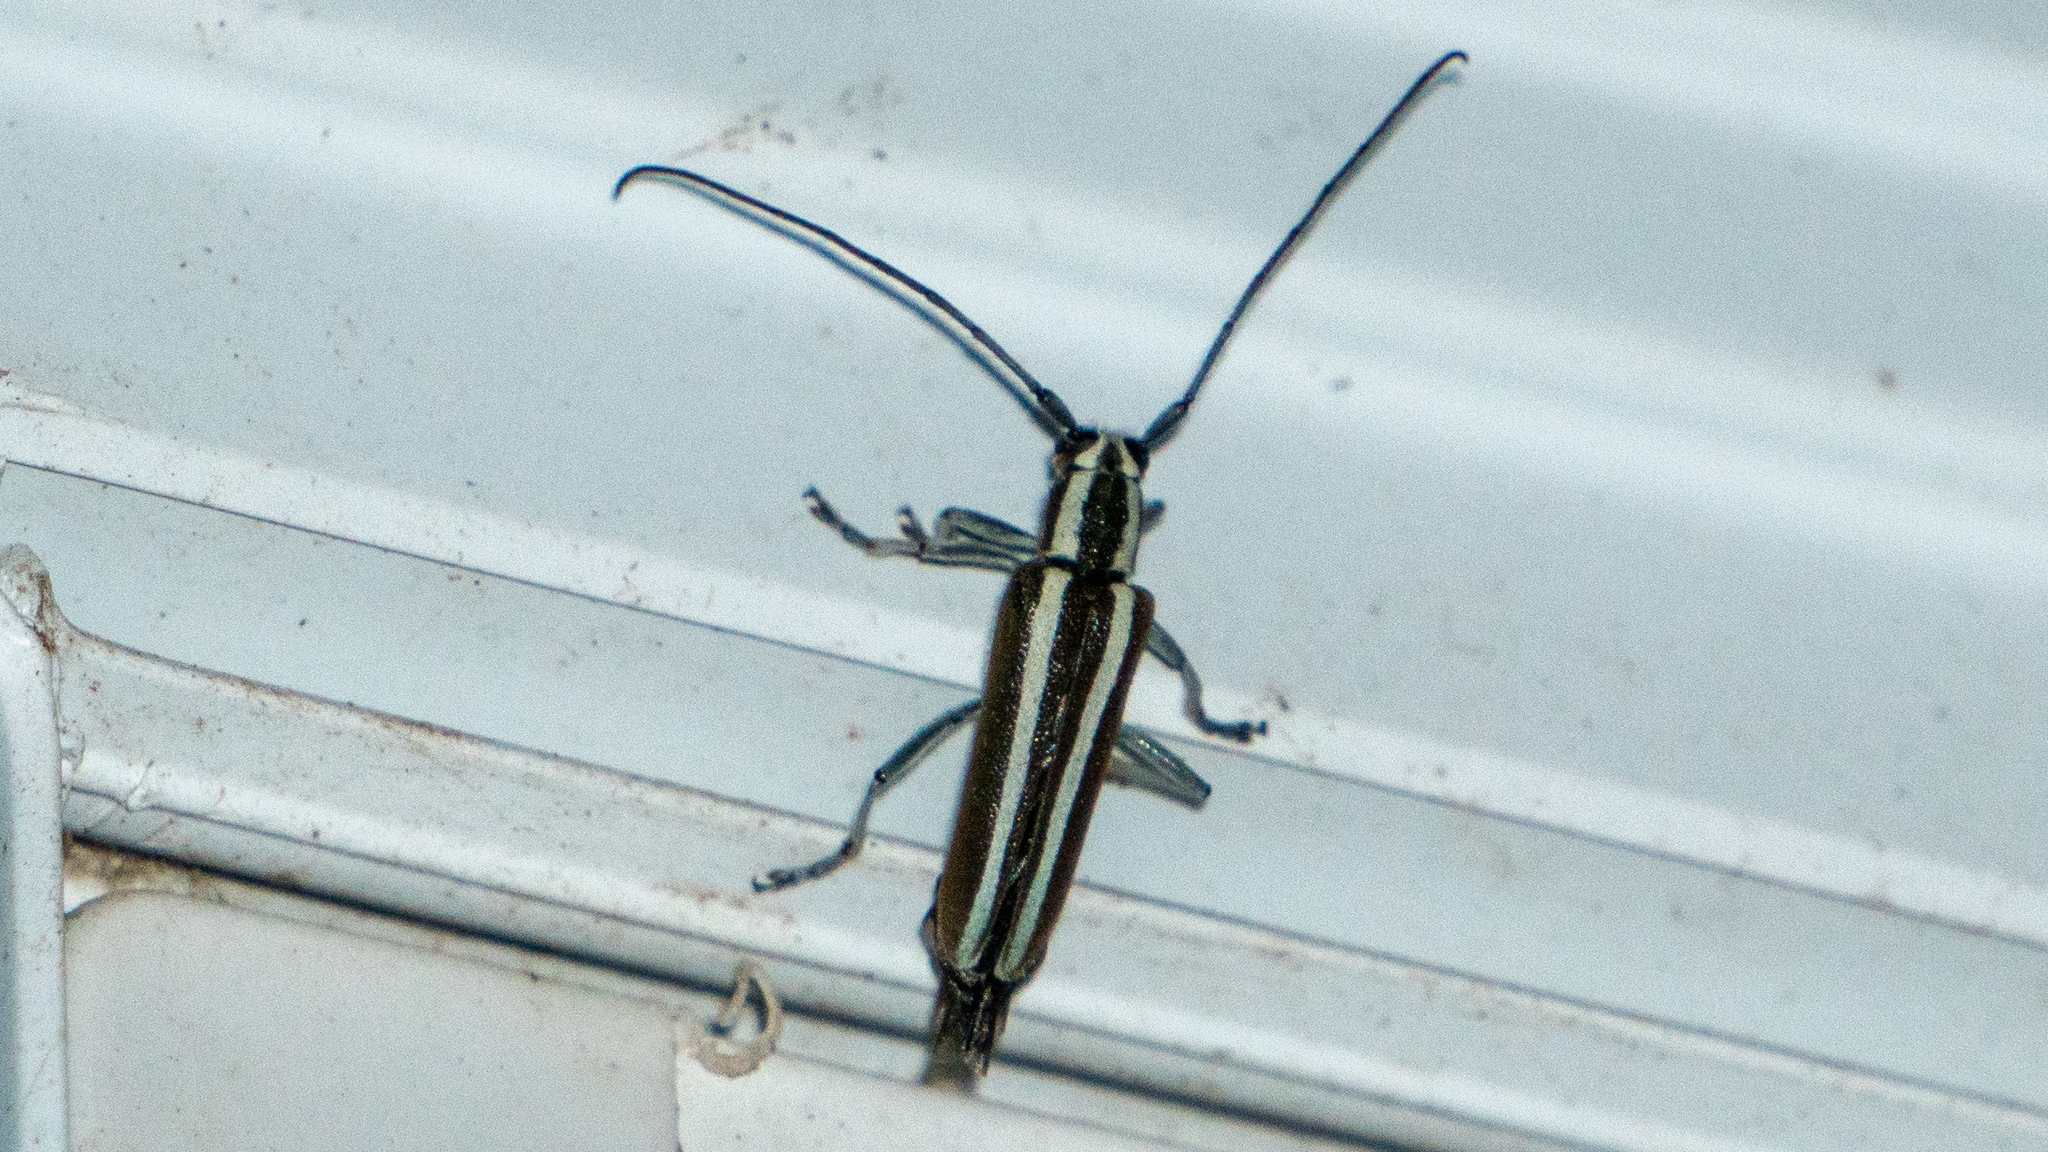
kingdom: Animalia
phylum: Arthropoda
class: Insecta
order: Coleoptera
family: Cerambycidae
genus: Saperda
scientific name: Saperda candida
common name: Round-headed borer
